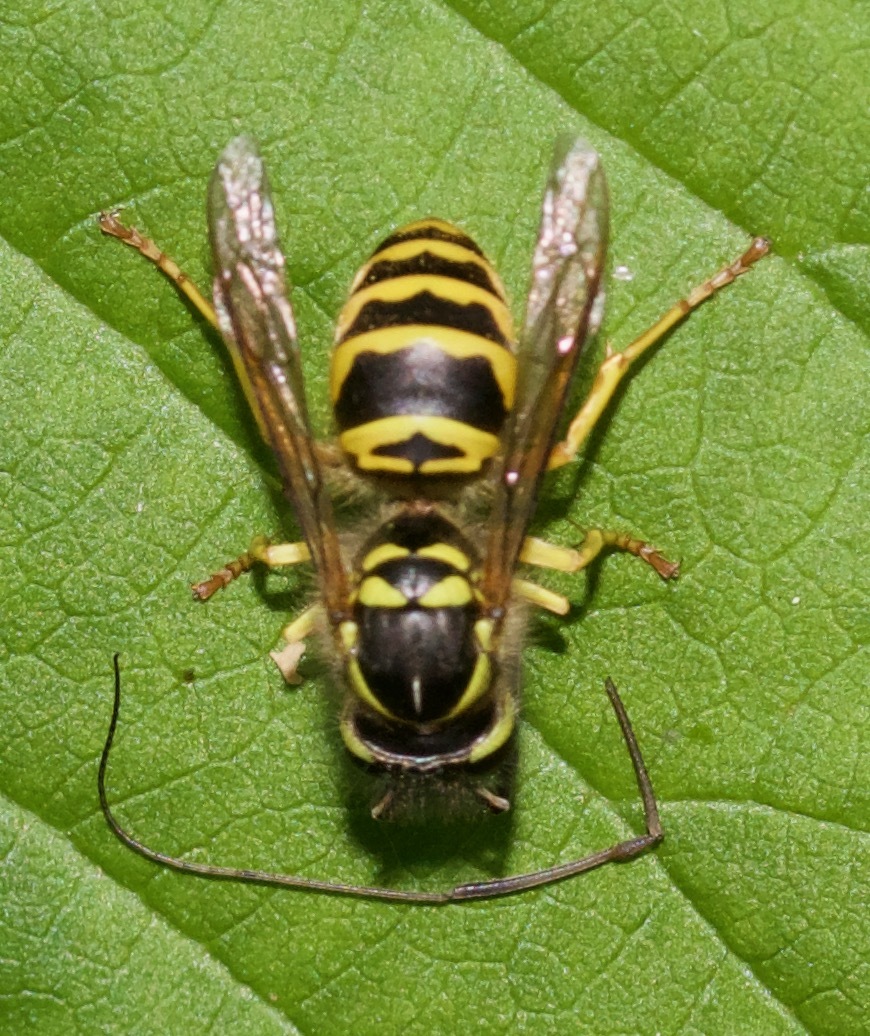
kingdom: Animalia
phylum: Arthropoda
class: Insecta
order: Hymenoptera
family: Vespidae
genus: Vespula
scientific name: Vespula maculifrons
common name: Eastern yellowjacket
